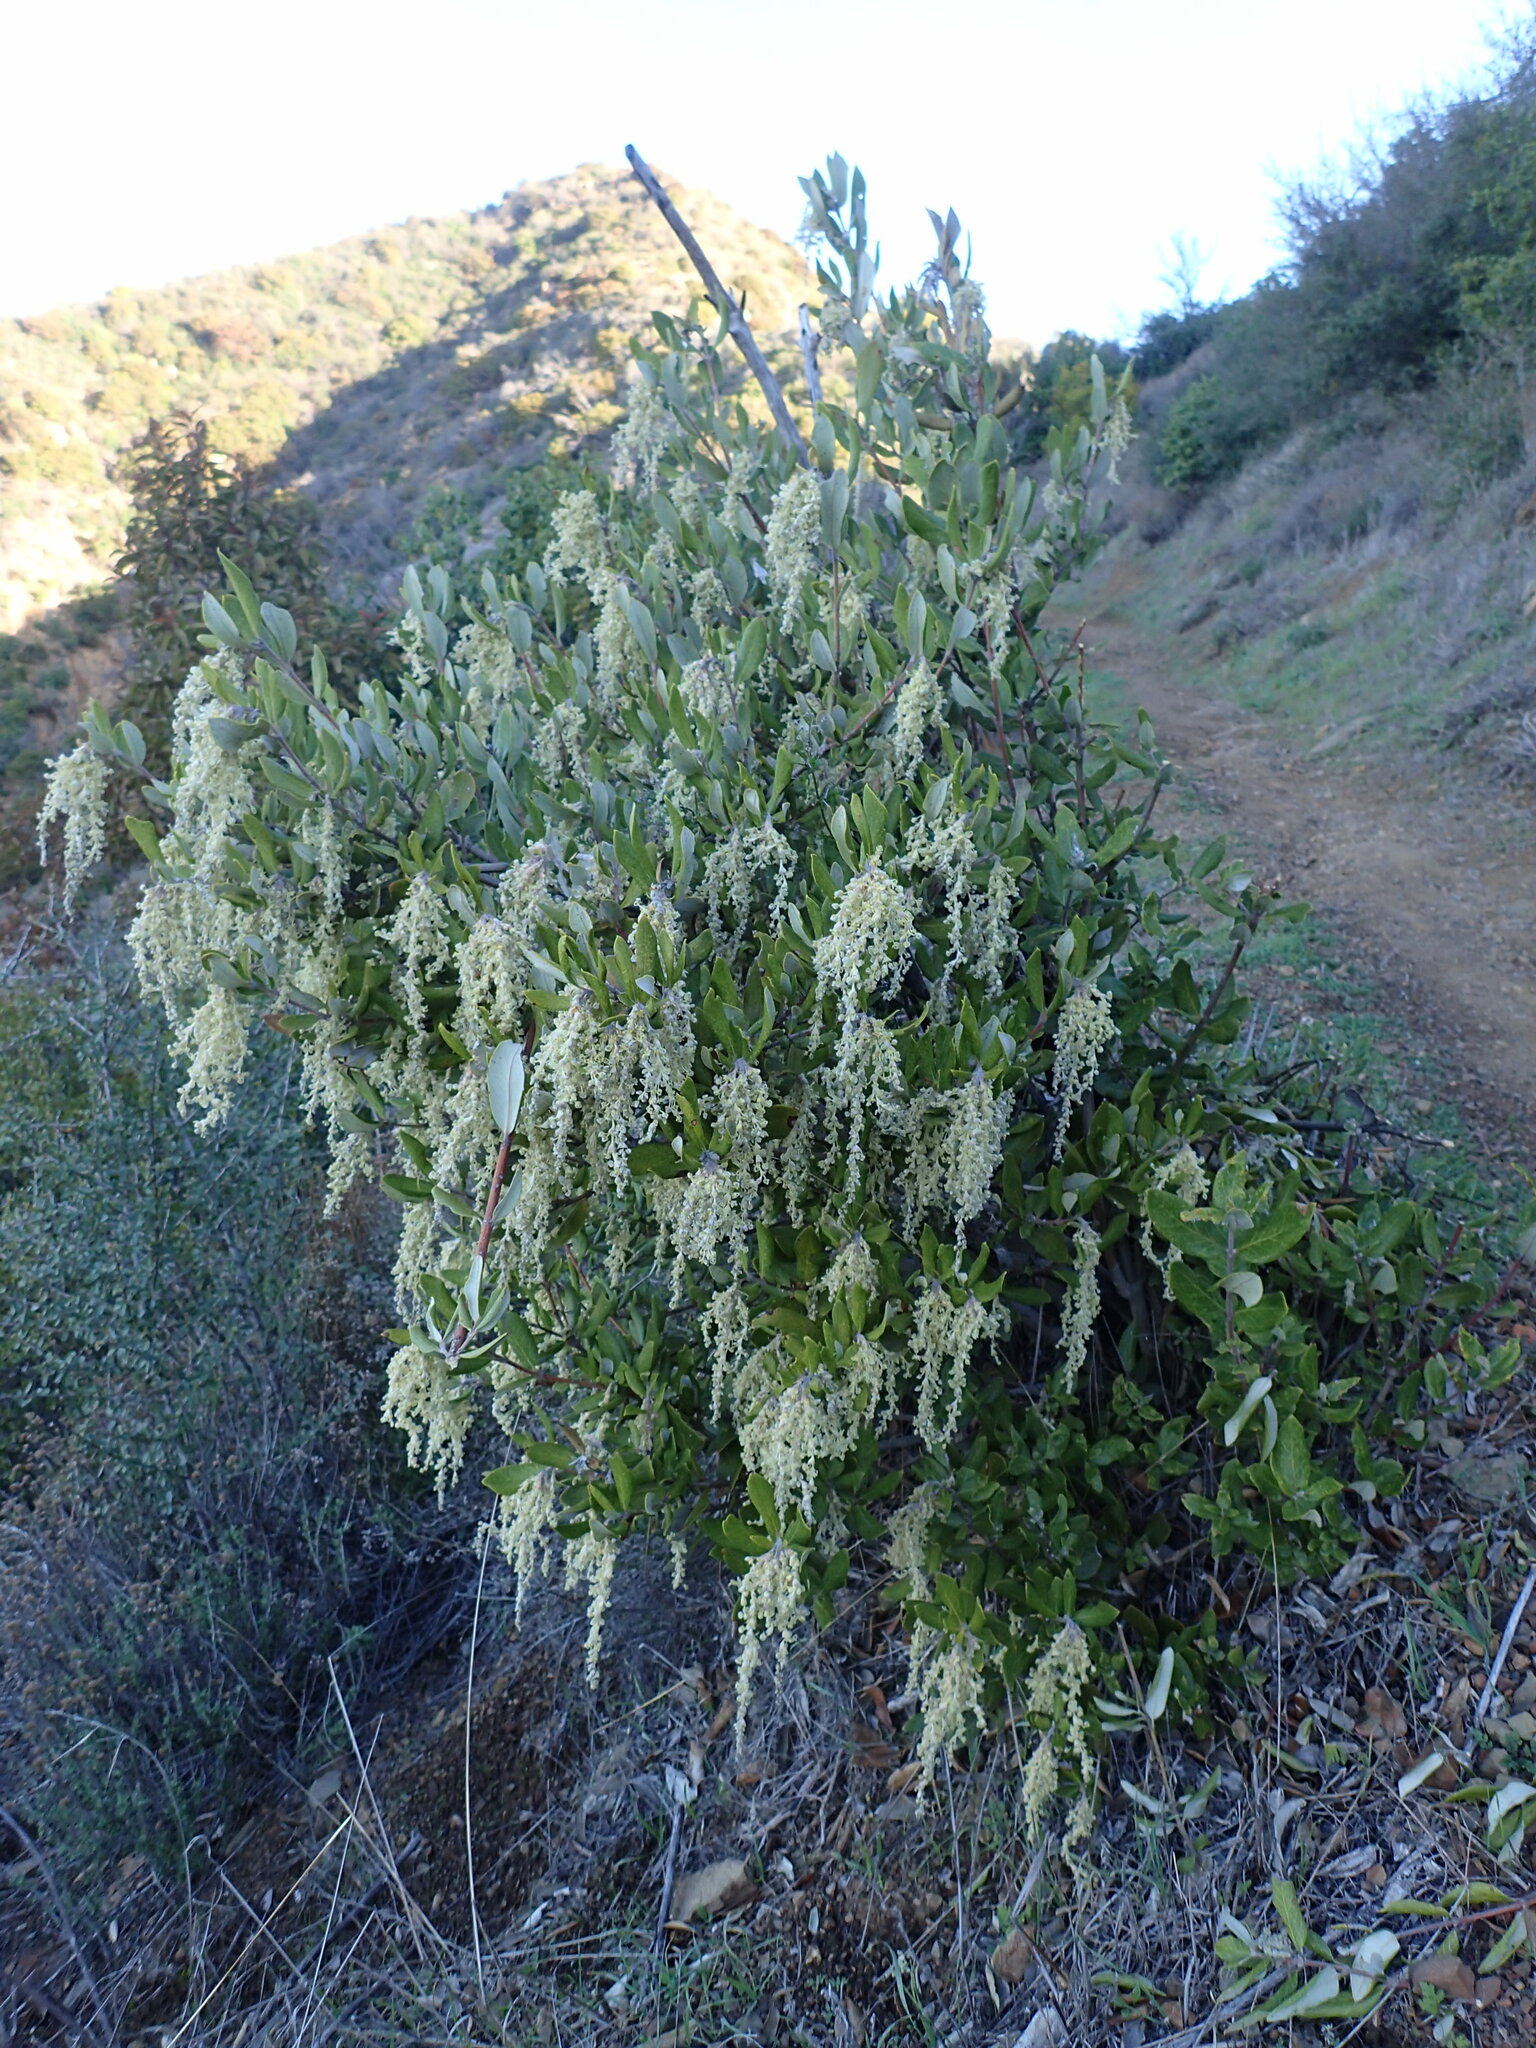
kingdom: Plantae
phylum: Tracheophyta
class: Magnoliopsida
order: Garryales
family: Garryaceae
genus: Garrya
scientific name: Garrya veatchii
